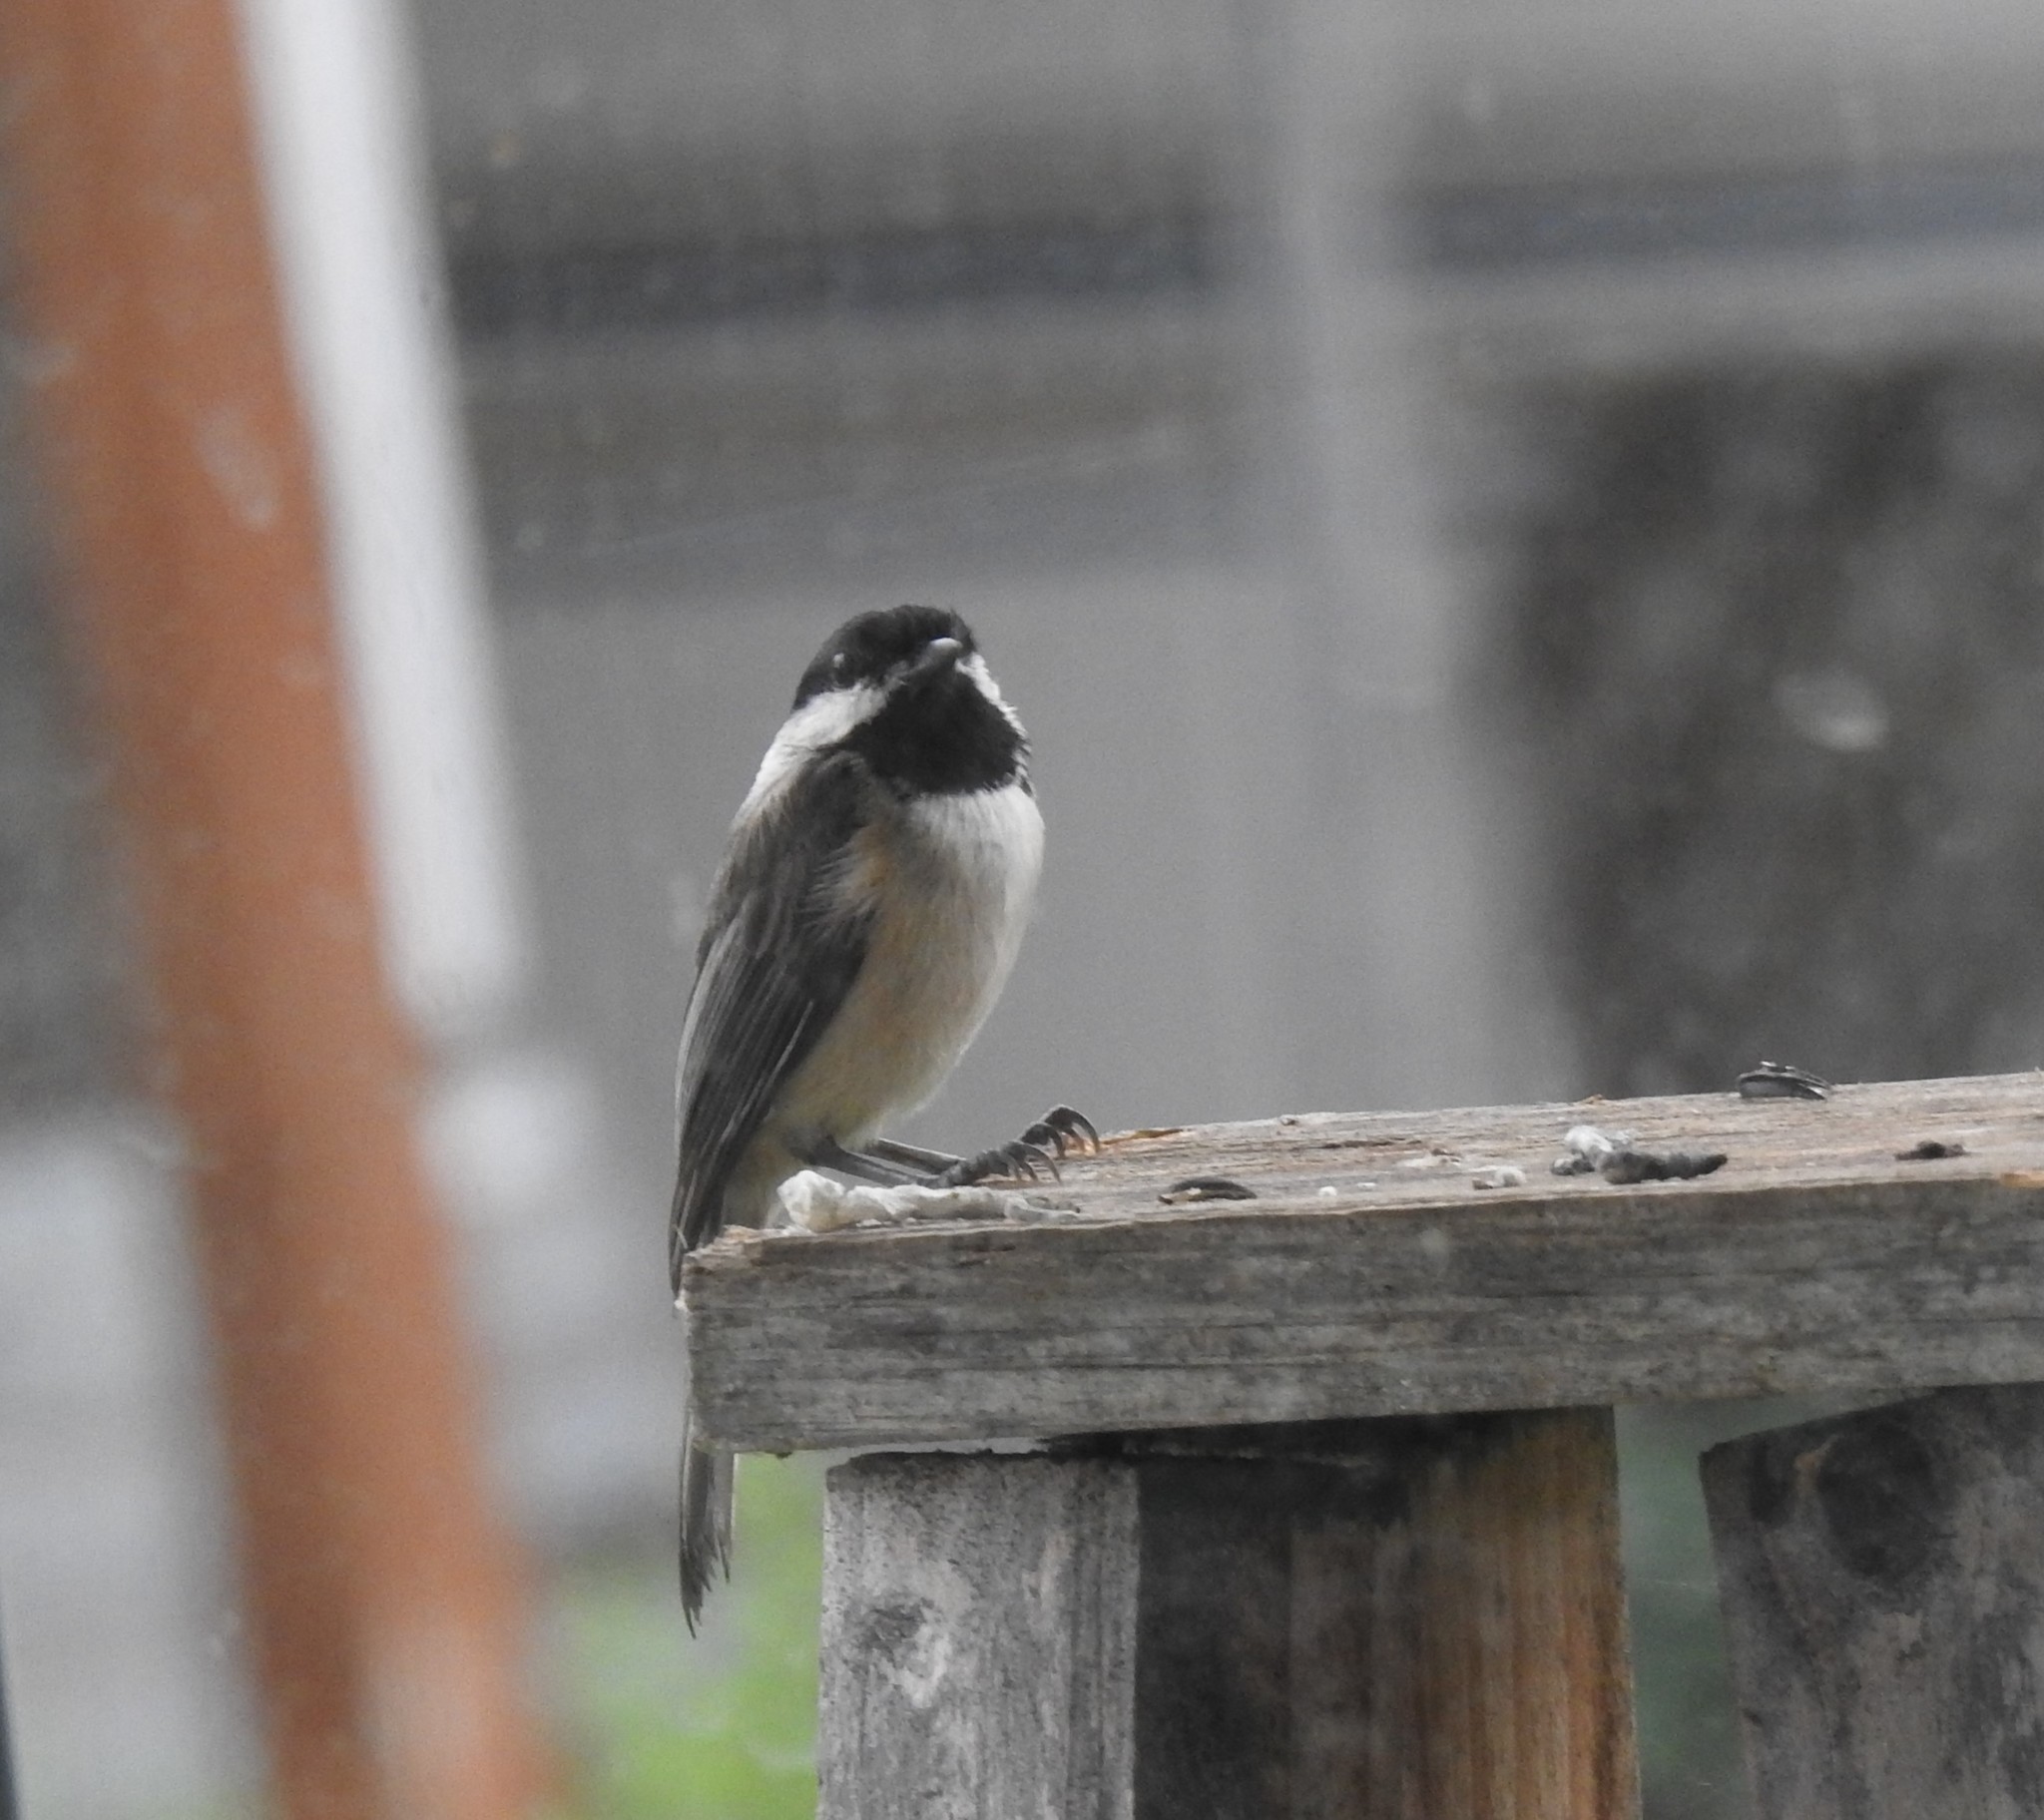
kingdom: Animalia
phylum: Chordata
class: Aves
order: Passeriformes
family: Paridae
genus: Poecile
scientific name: Poecile atricapillus
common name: Black-capped chickadee
